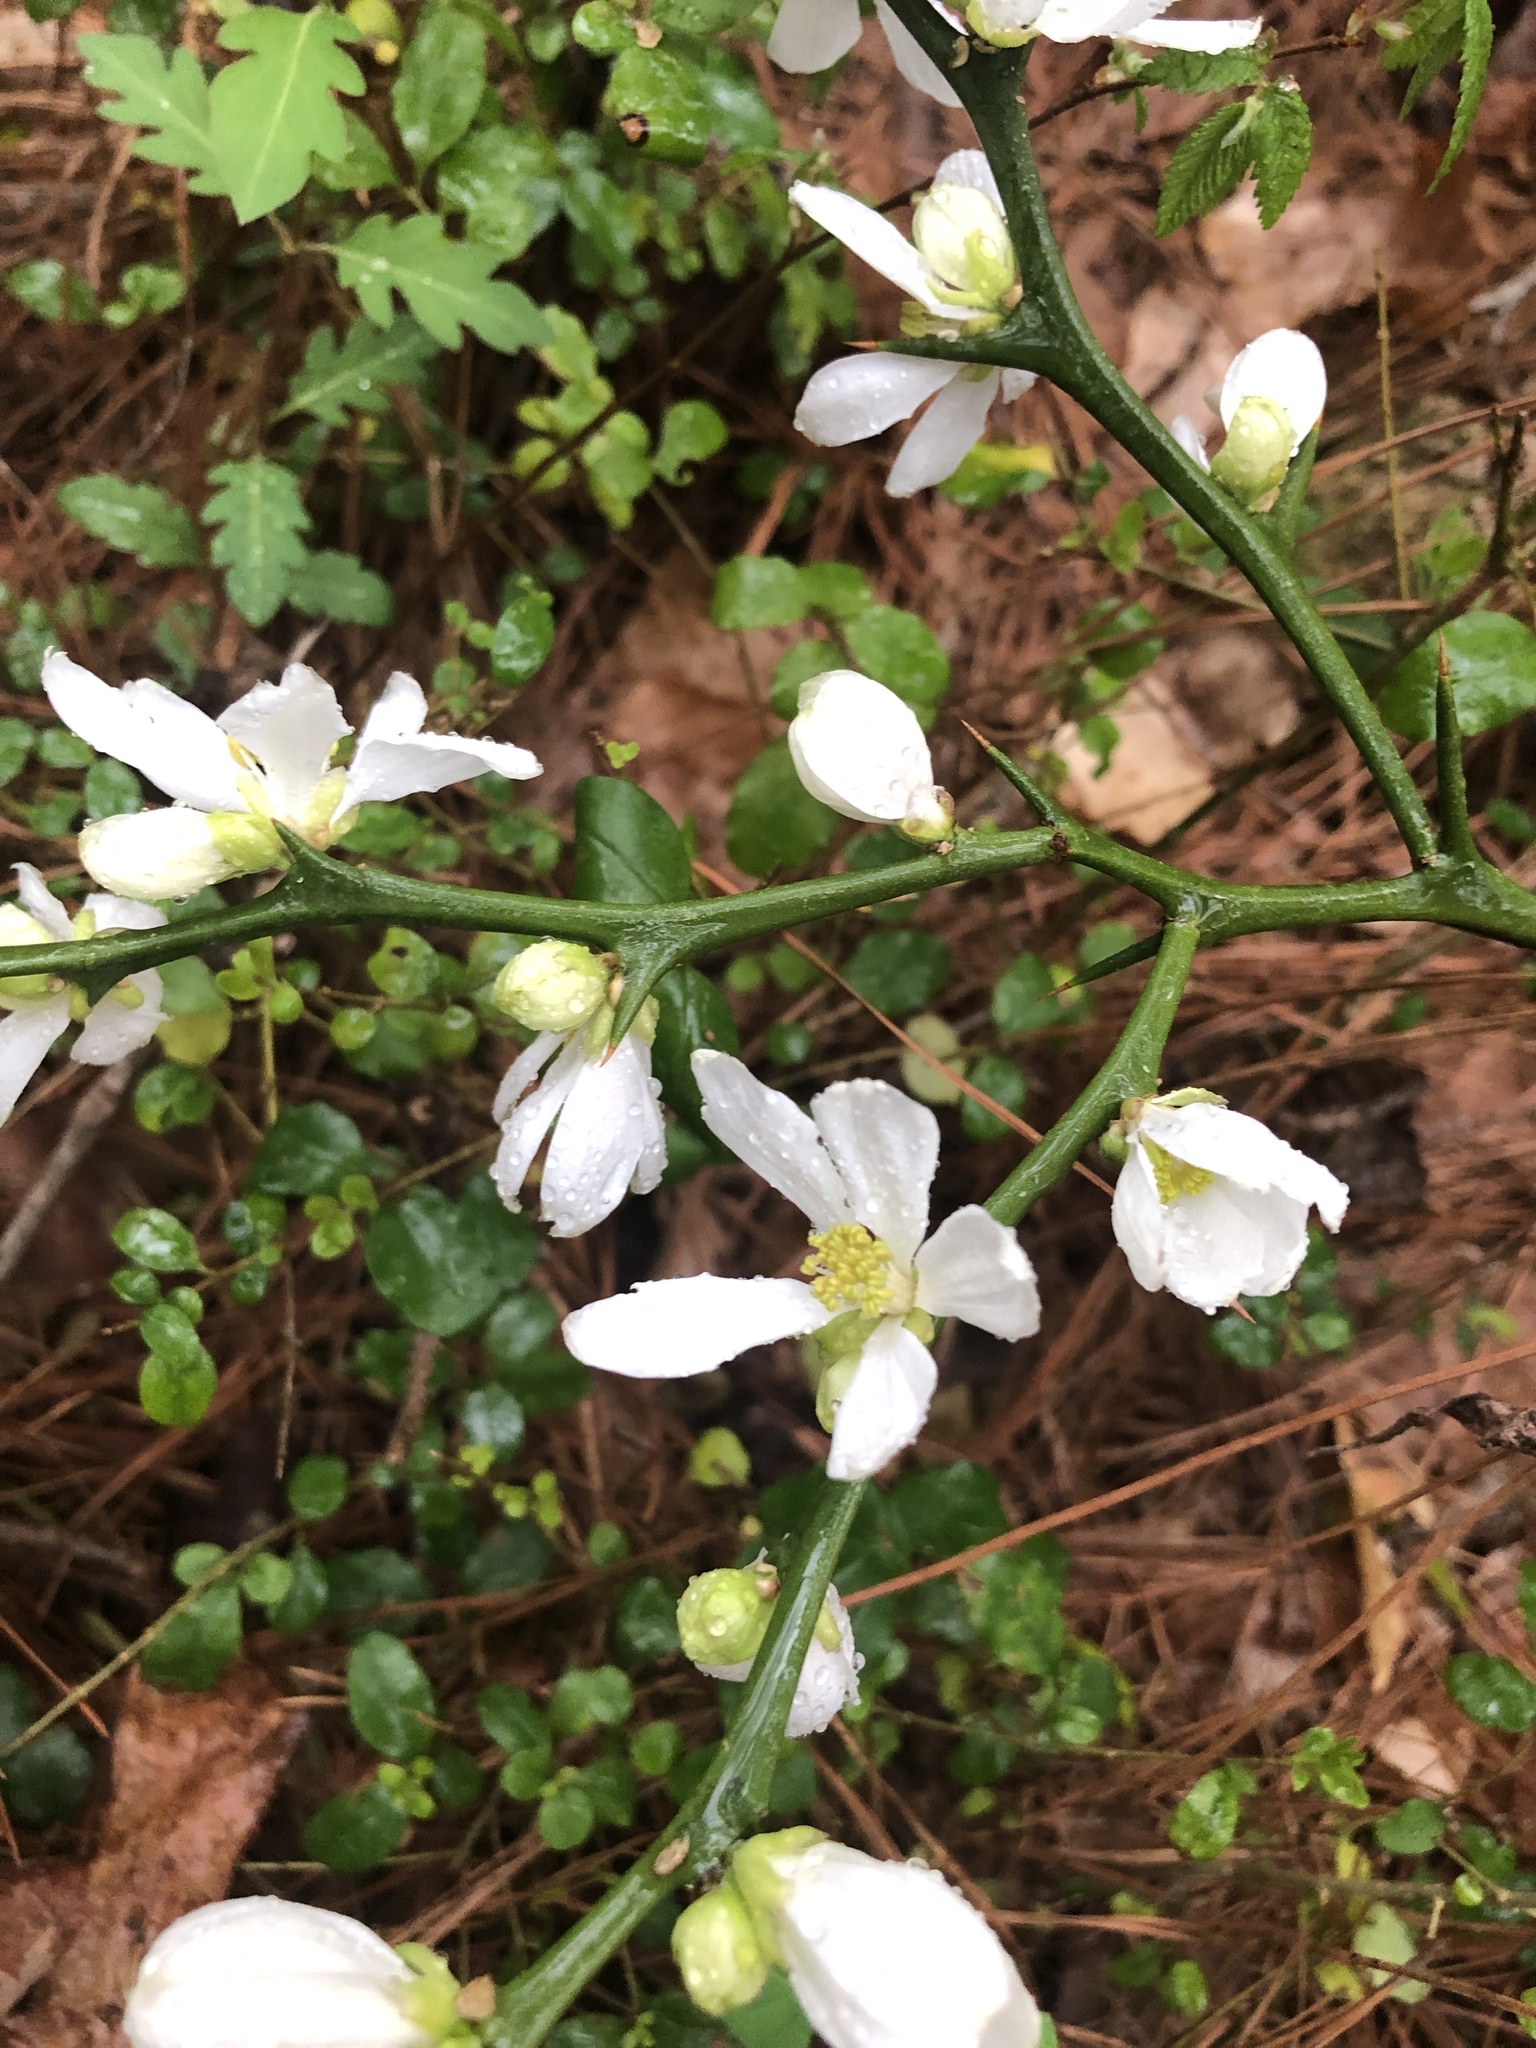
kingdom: Plantae
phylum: Tracheophyta
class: Magnoliopsida
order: Sapindales
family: Rutaceae
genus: Citrus
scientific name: Citrus trifoliata
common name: Japanese bitter-orange
